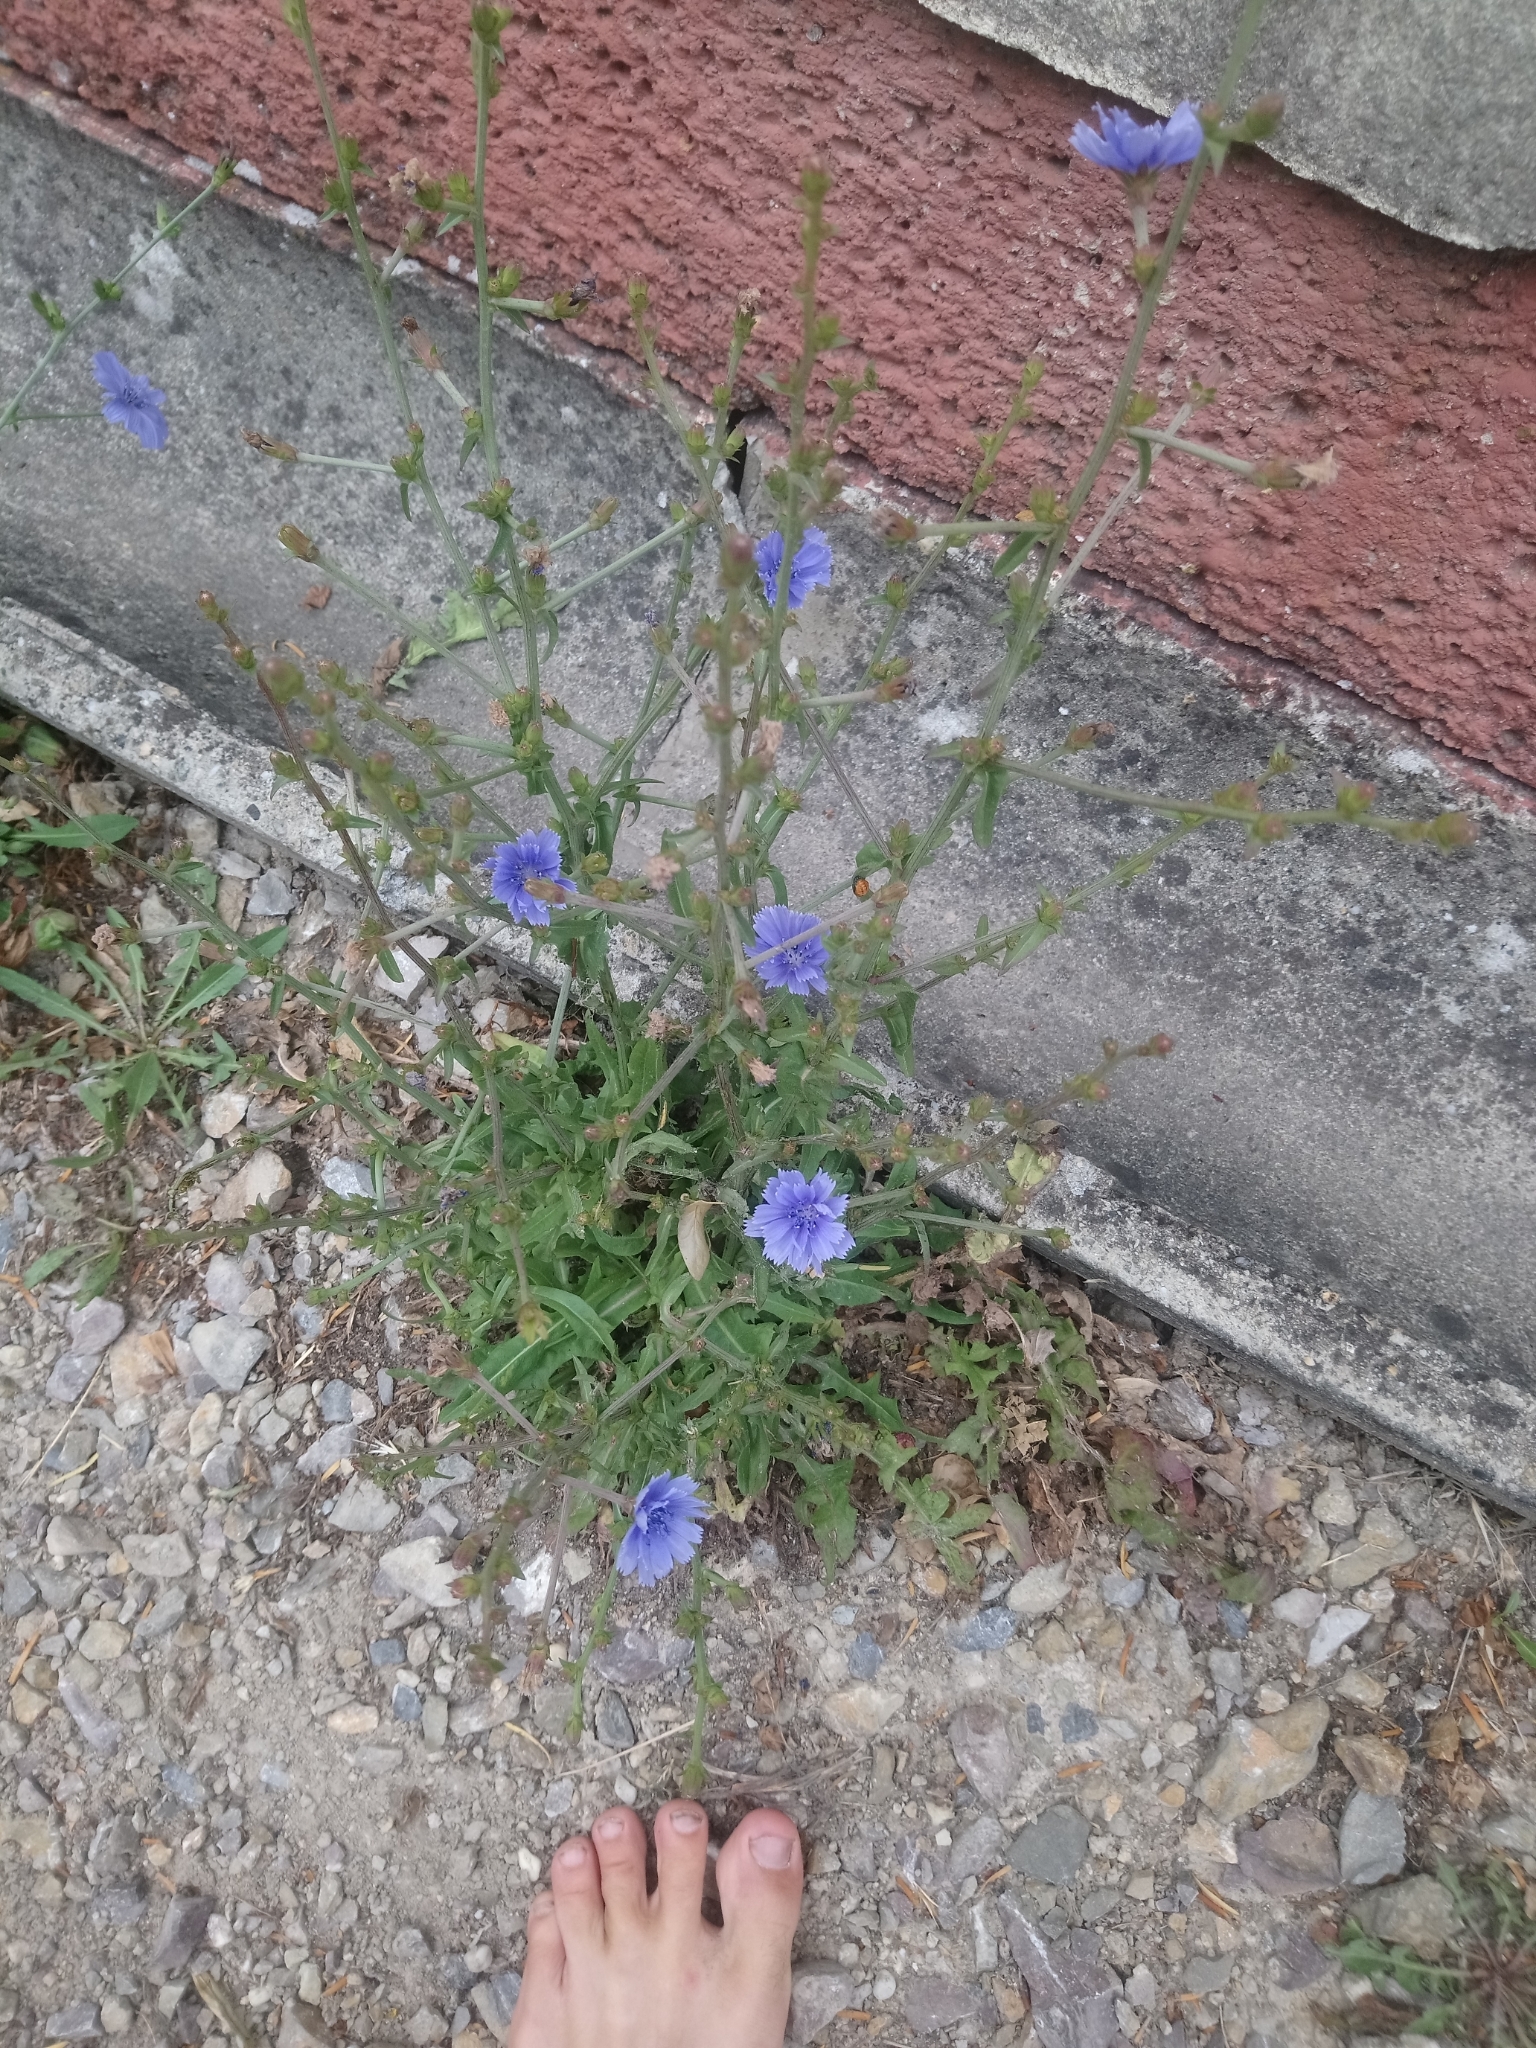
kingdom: Plantae
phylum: Tracheophyta
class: Magnoliopsida
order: Asterales
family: Asteraceae
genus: Cichorium
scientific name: Cichorium intybus
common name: Chicory
